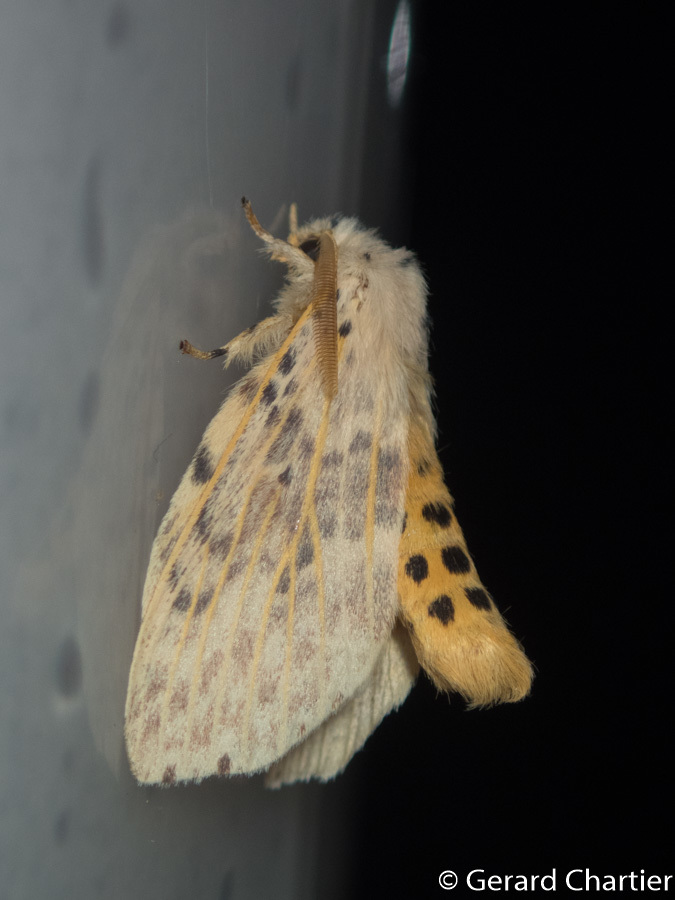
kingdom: Animalia
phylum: Arthropoda
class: Insecta
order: Lepidoptera
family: Notodontidae
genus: Cerasana
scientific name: Cerasana
